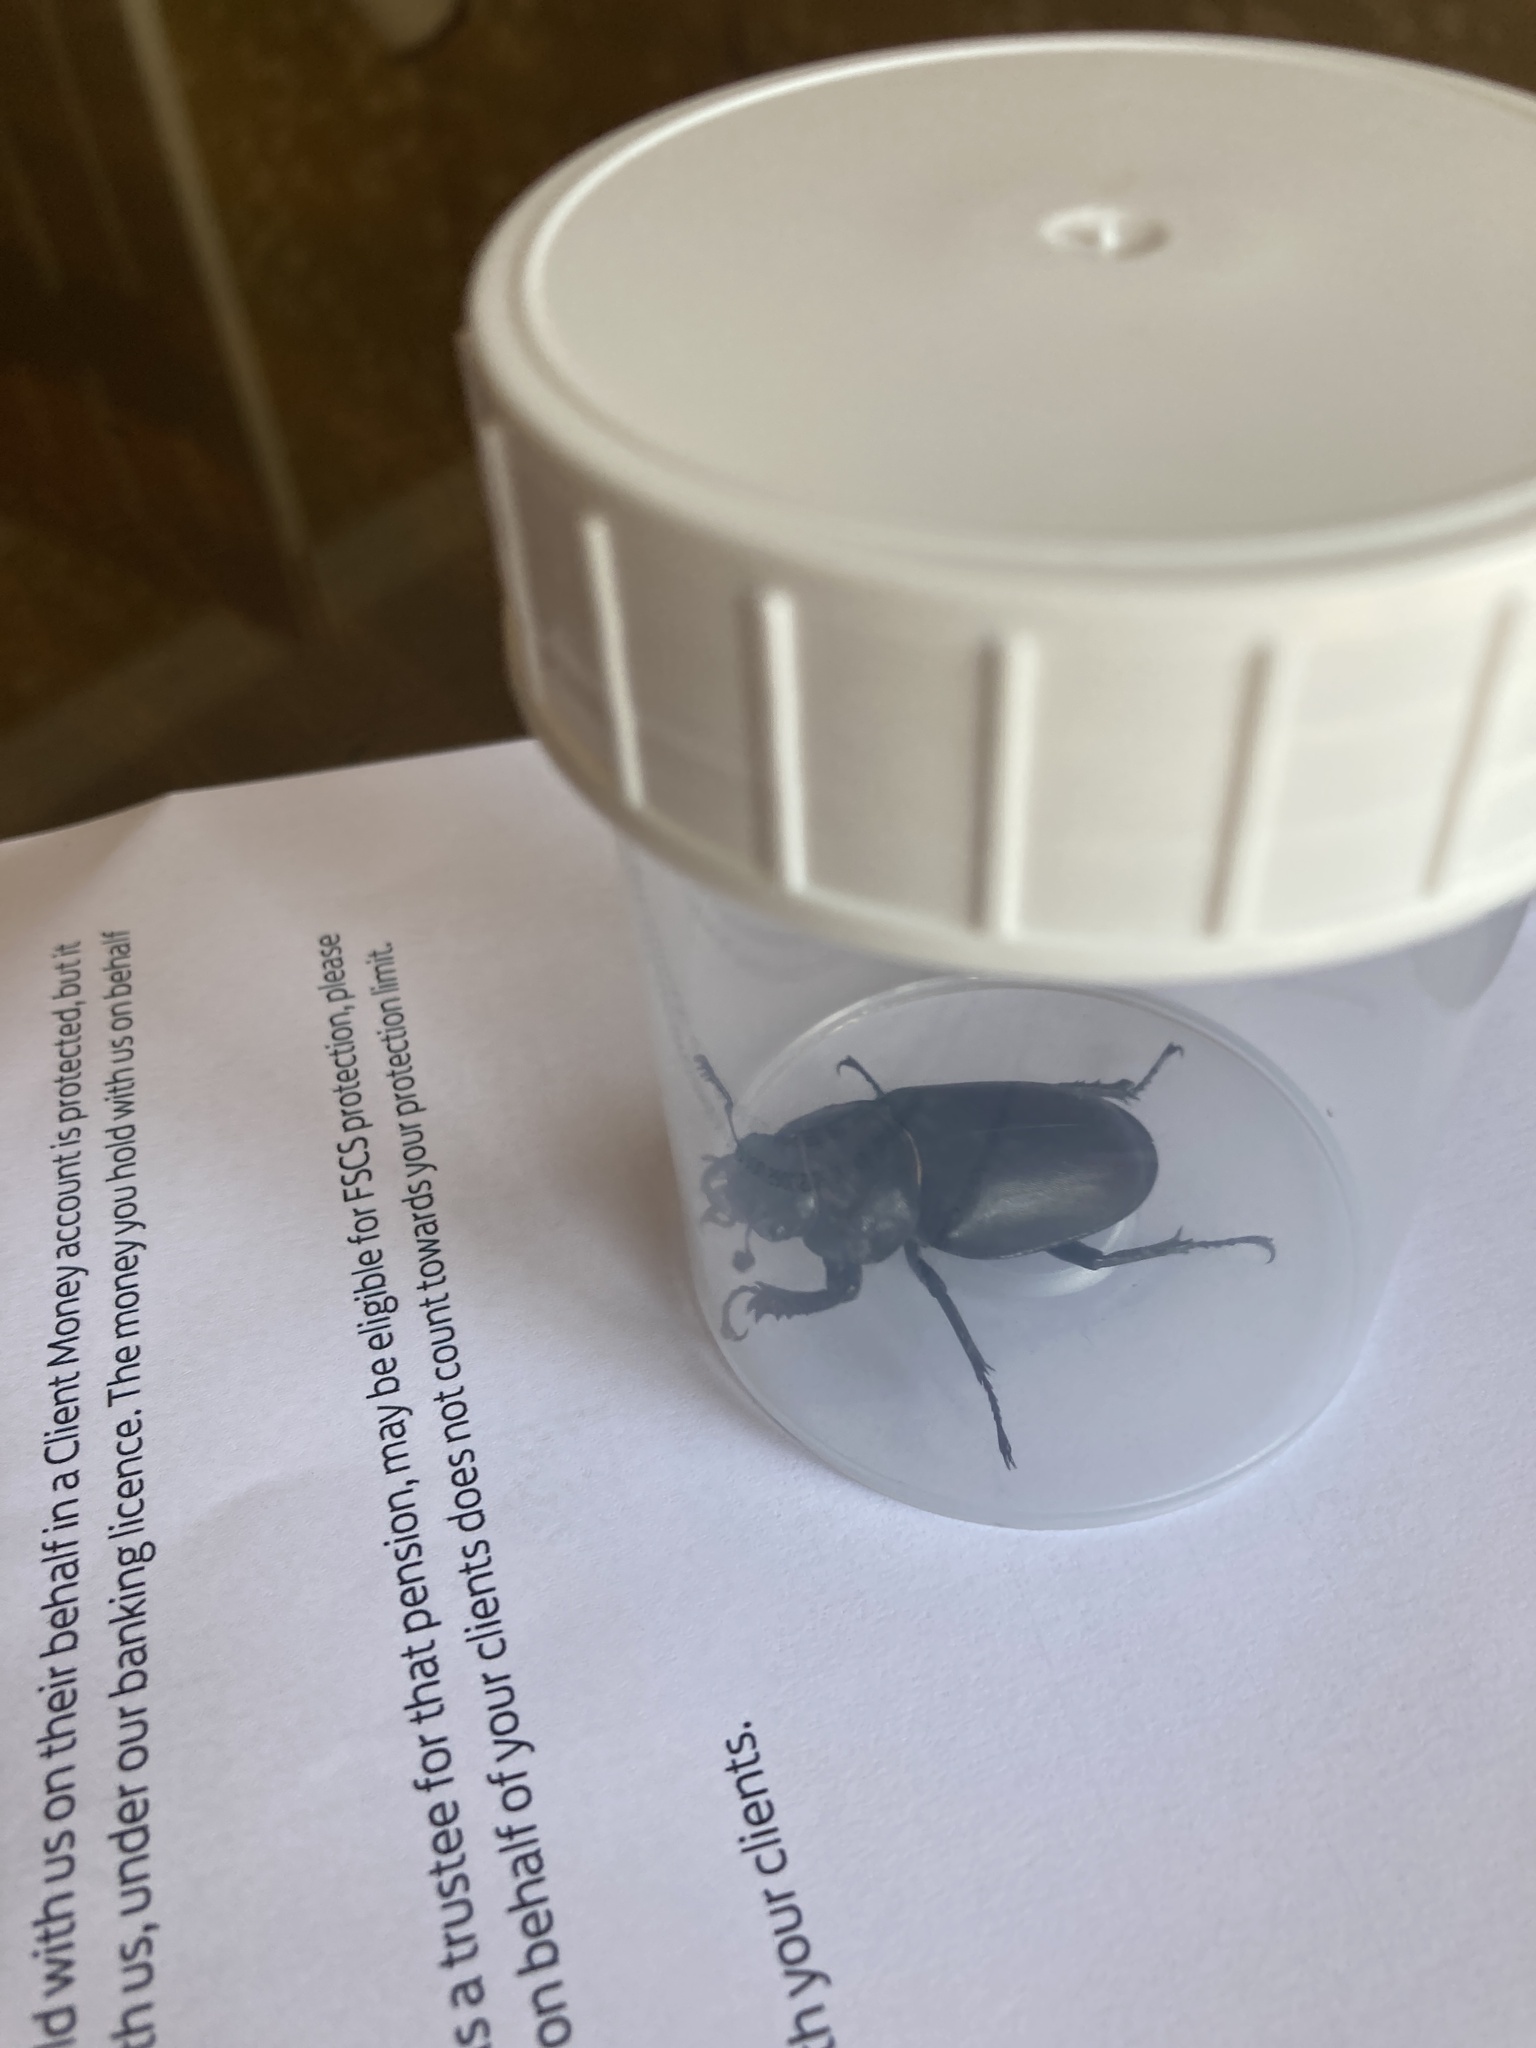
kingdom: Animalia
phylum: Arthropoda
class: Insecta
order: Coleoptera
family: Lucanidae
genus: Lucanus
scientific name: Lucanus cervus
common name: Stag beetle
